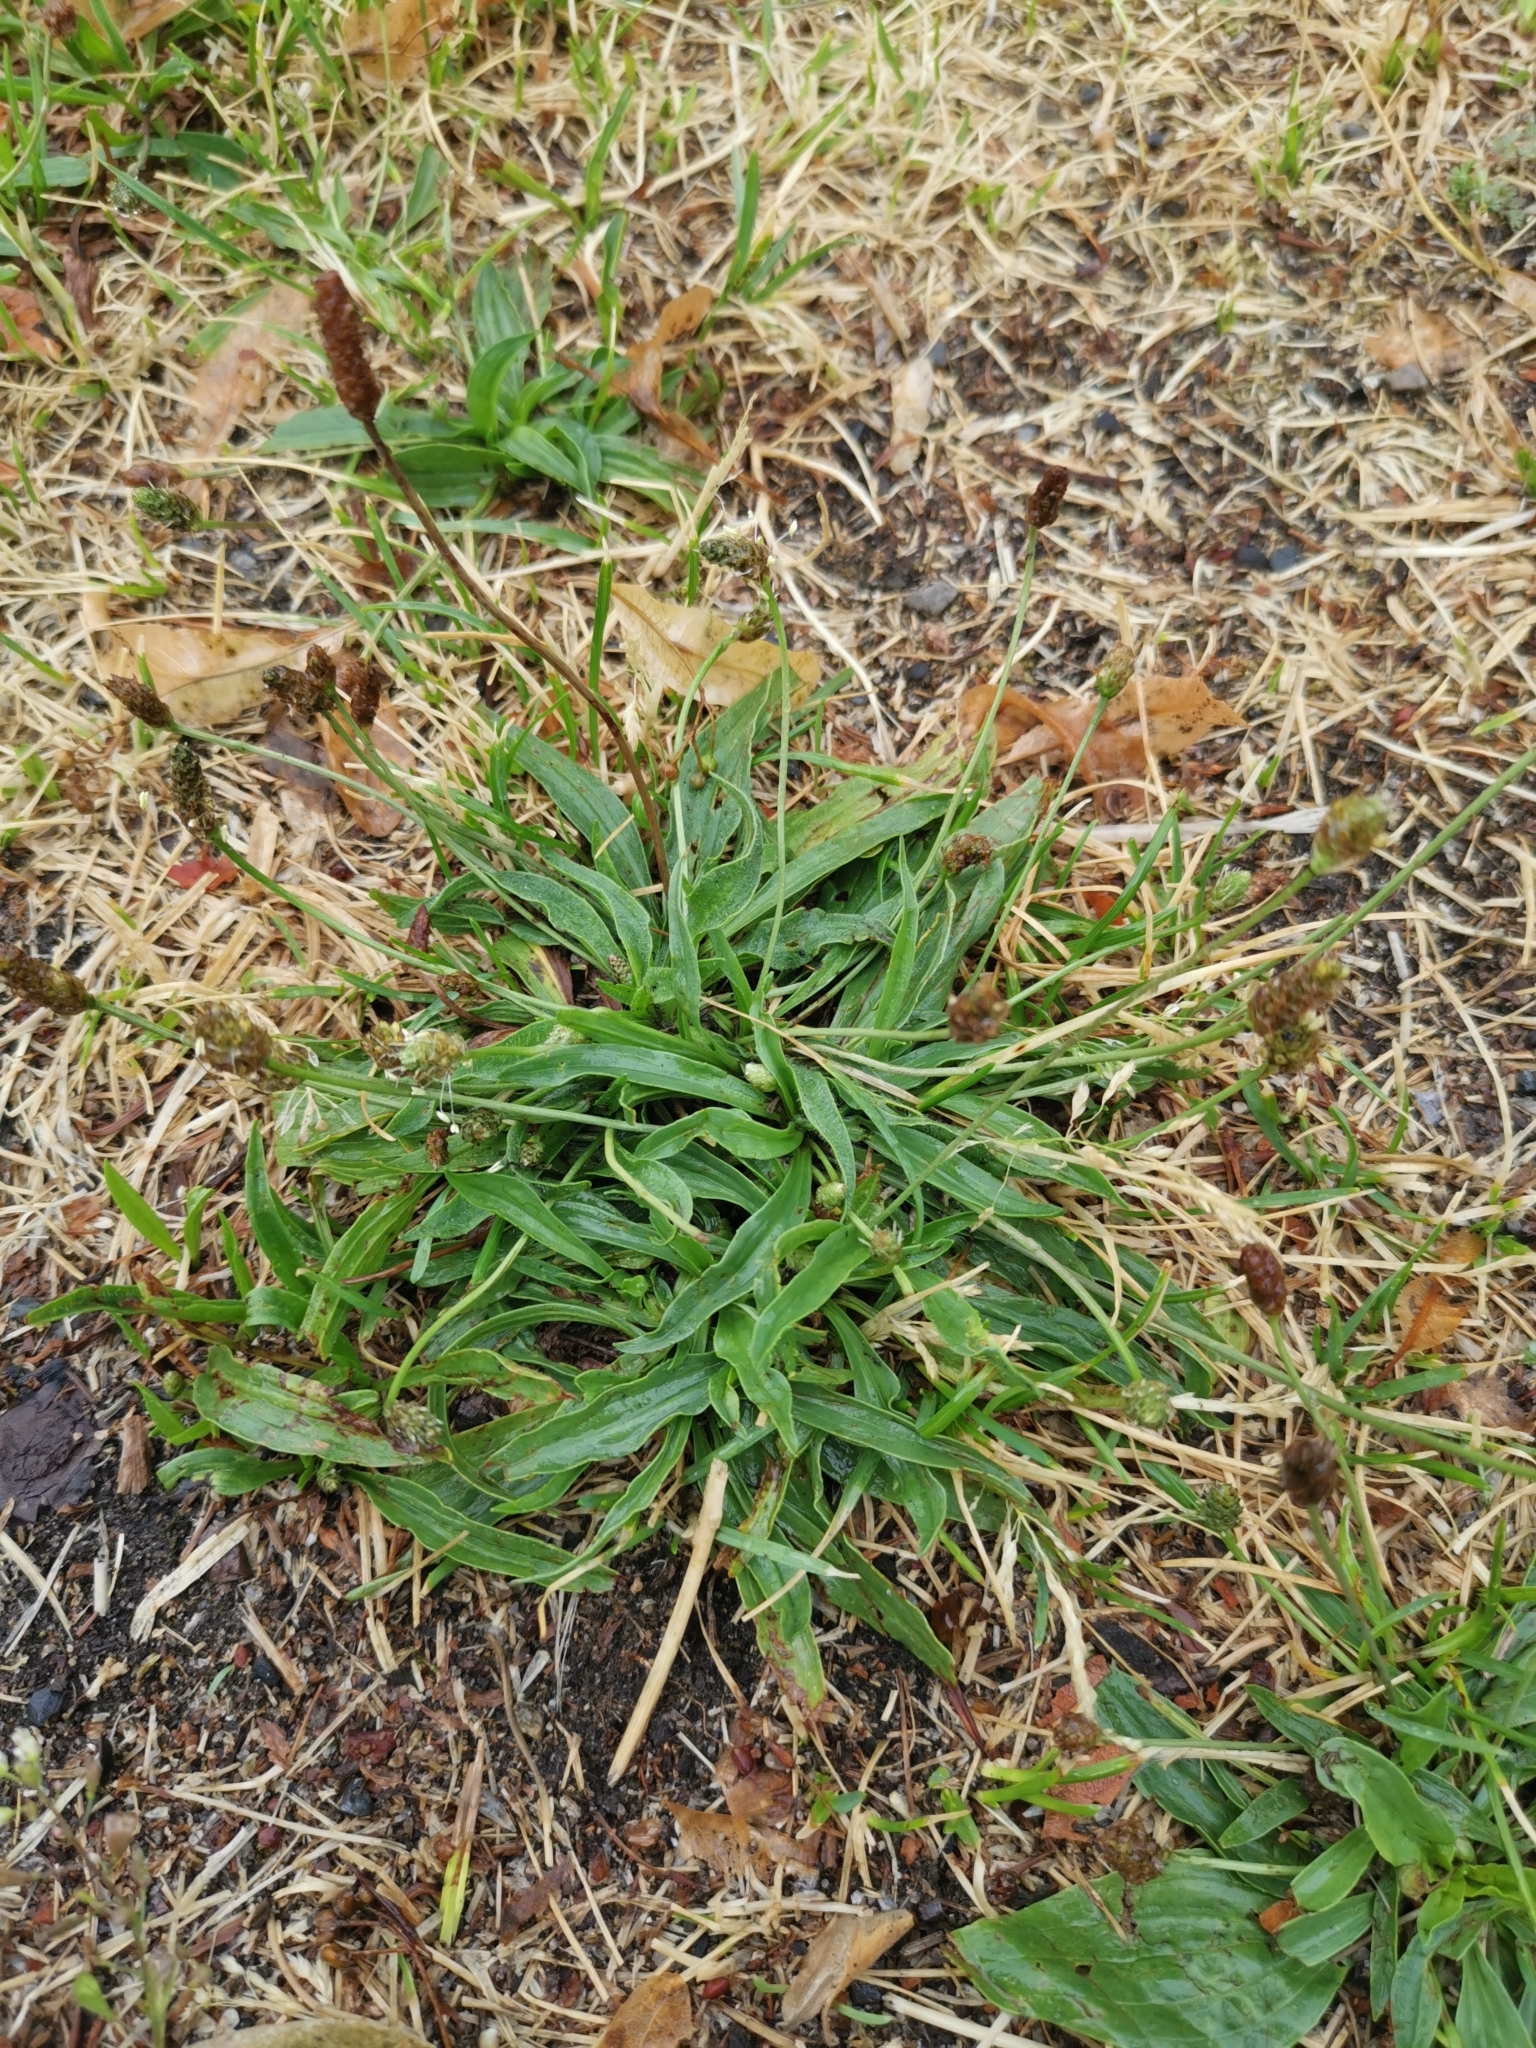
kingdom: Plantae
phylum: Tracheophyta
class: Magnoliopsida
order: Lamiales
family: Plantaginaceae
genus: Plantago
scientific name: Plantago lanceolata
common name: Ribwort plantain
